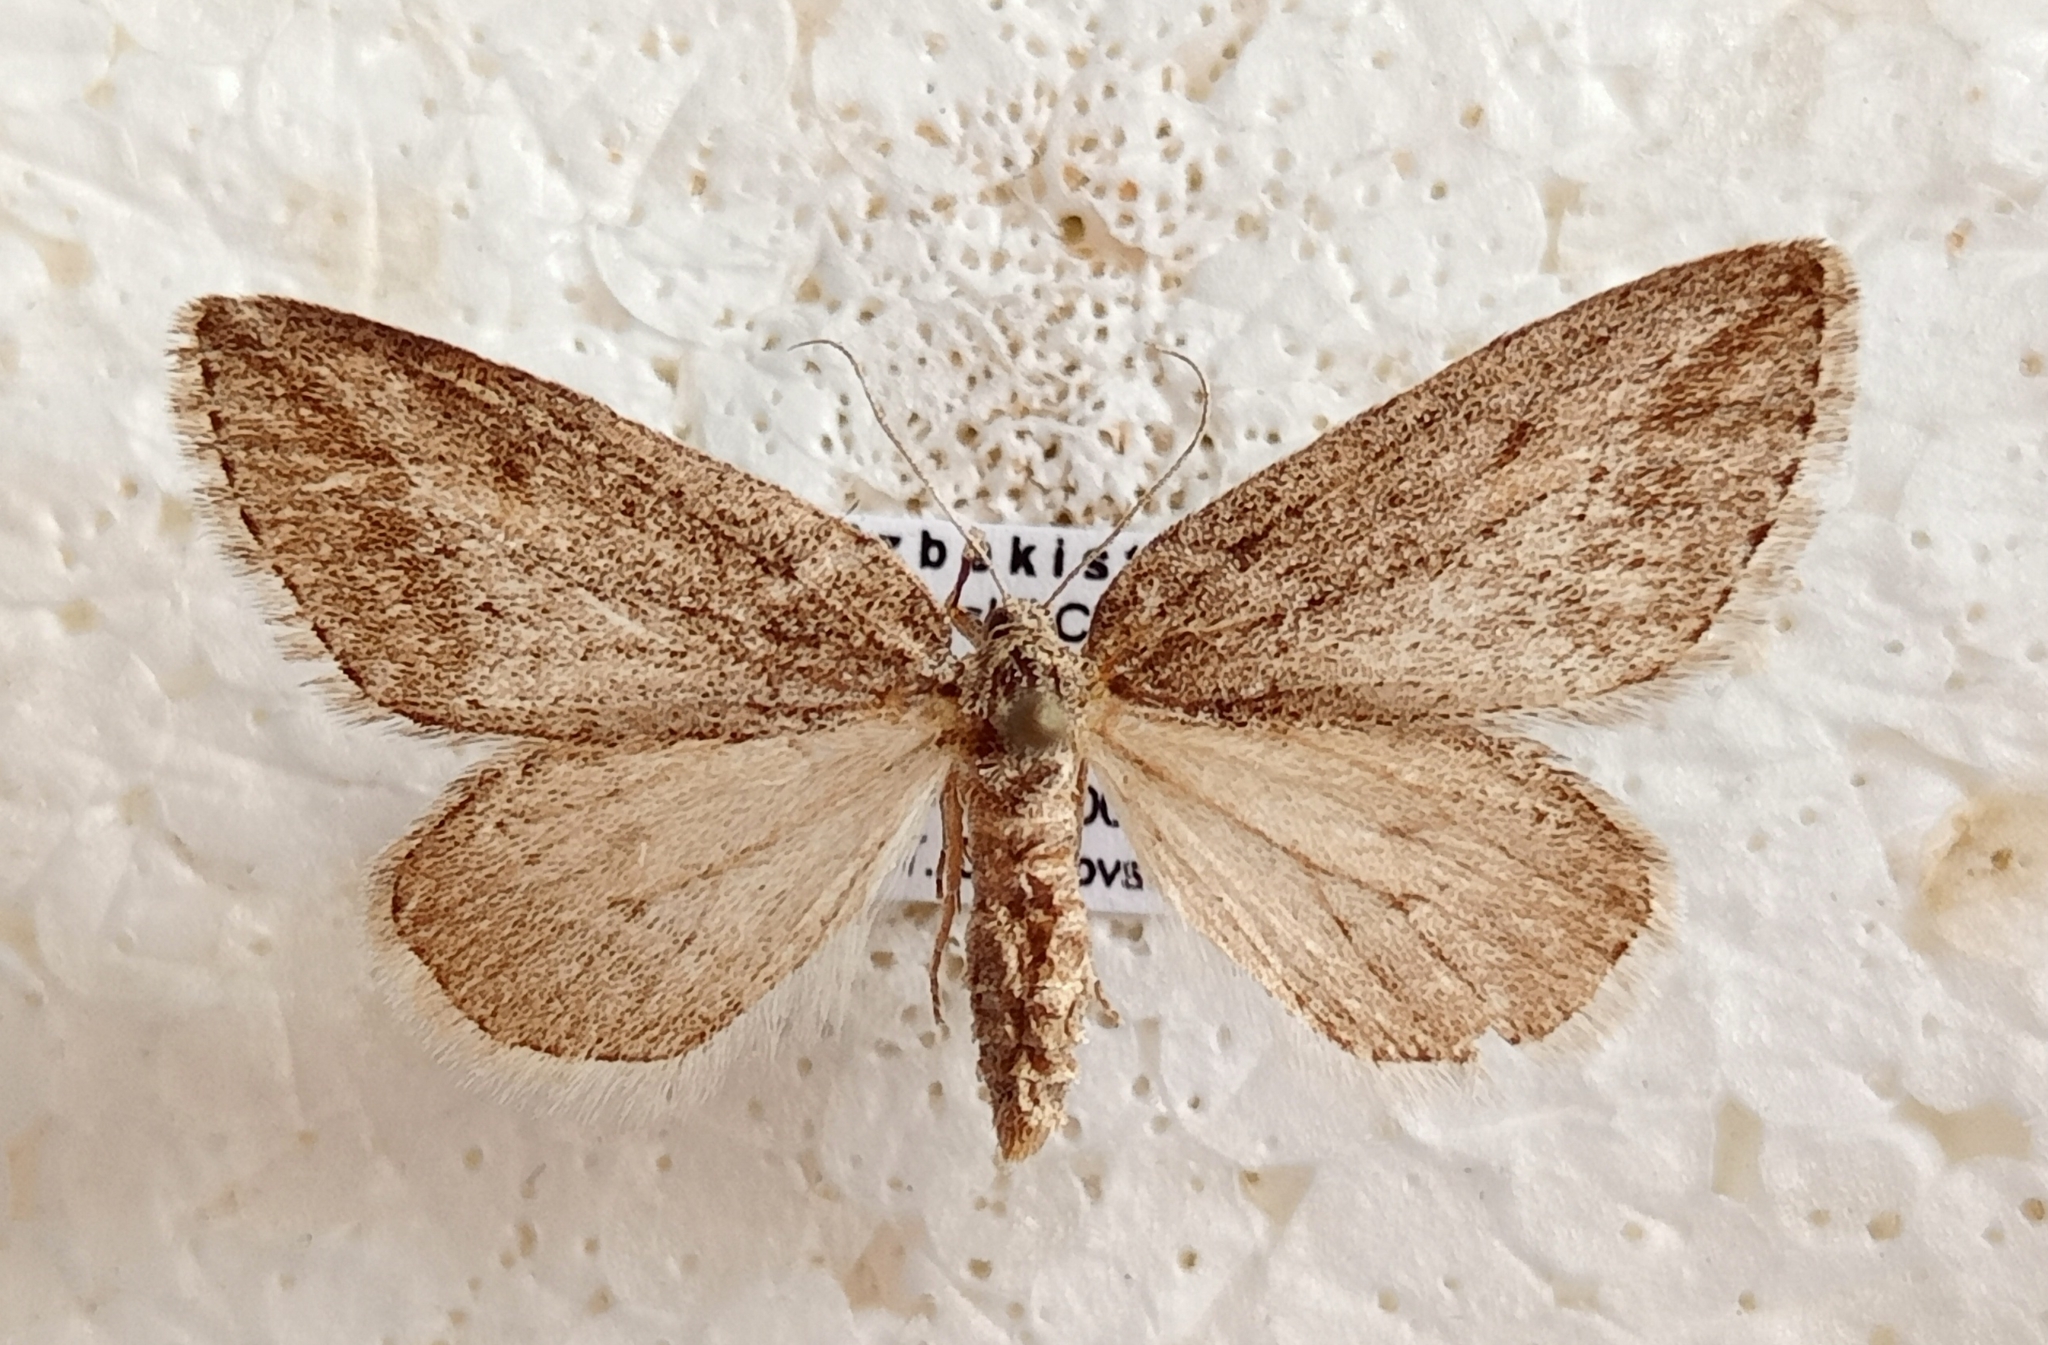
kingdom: Animalia
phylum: Arthropoda
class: Insecta
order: Lepidoptera
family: Geometridae
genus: Habermania
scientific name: Habermania oxygonaria
